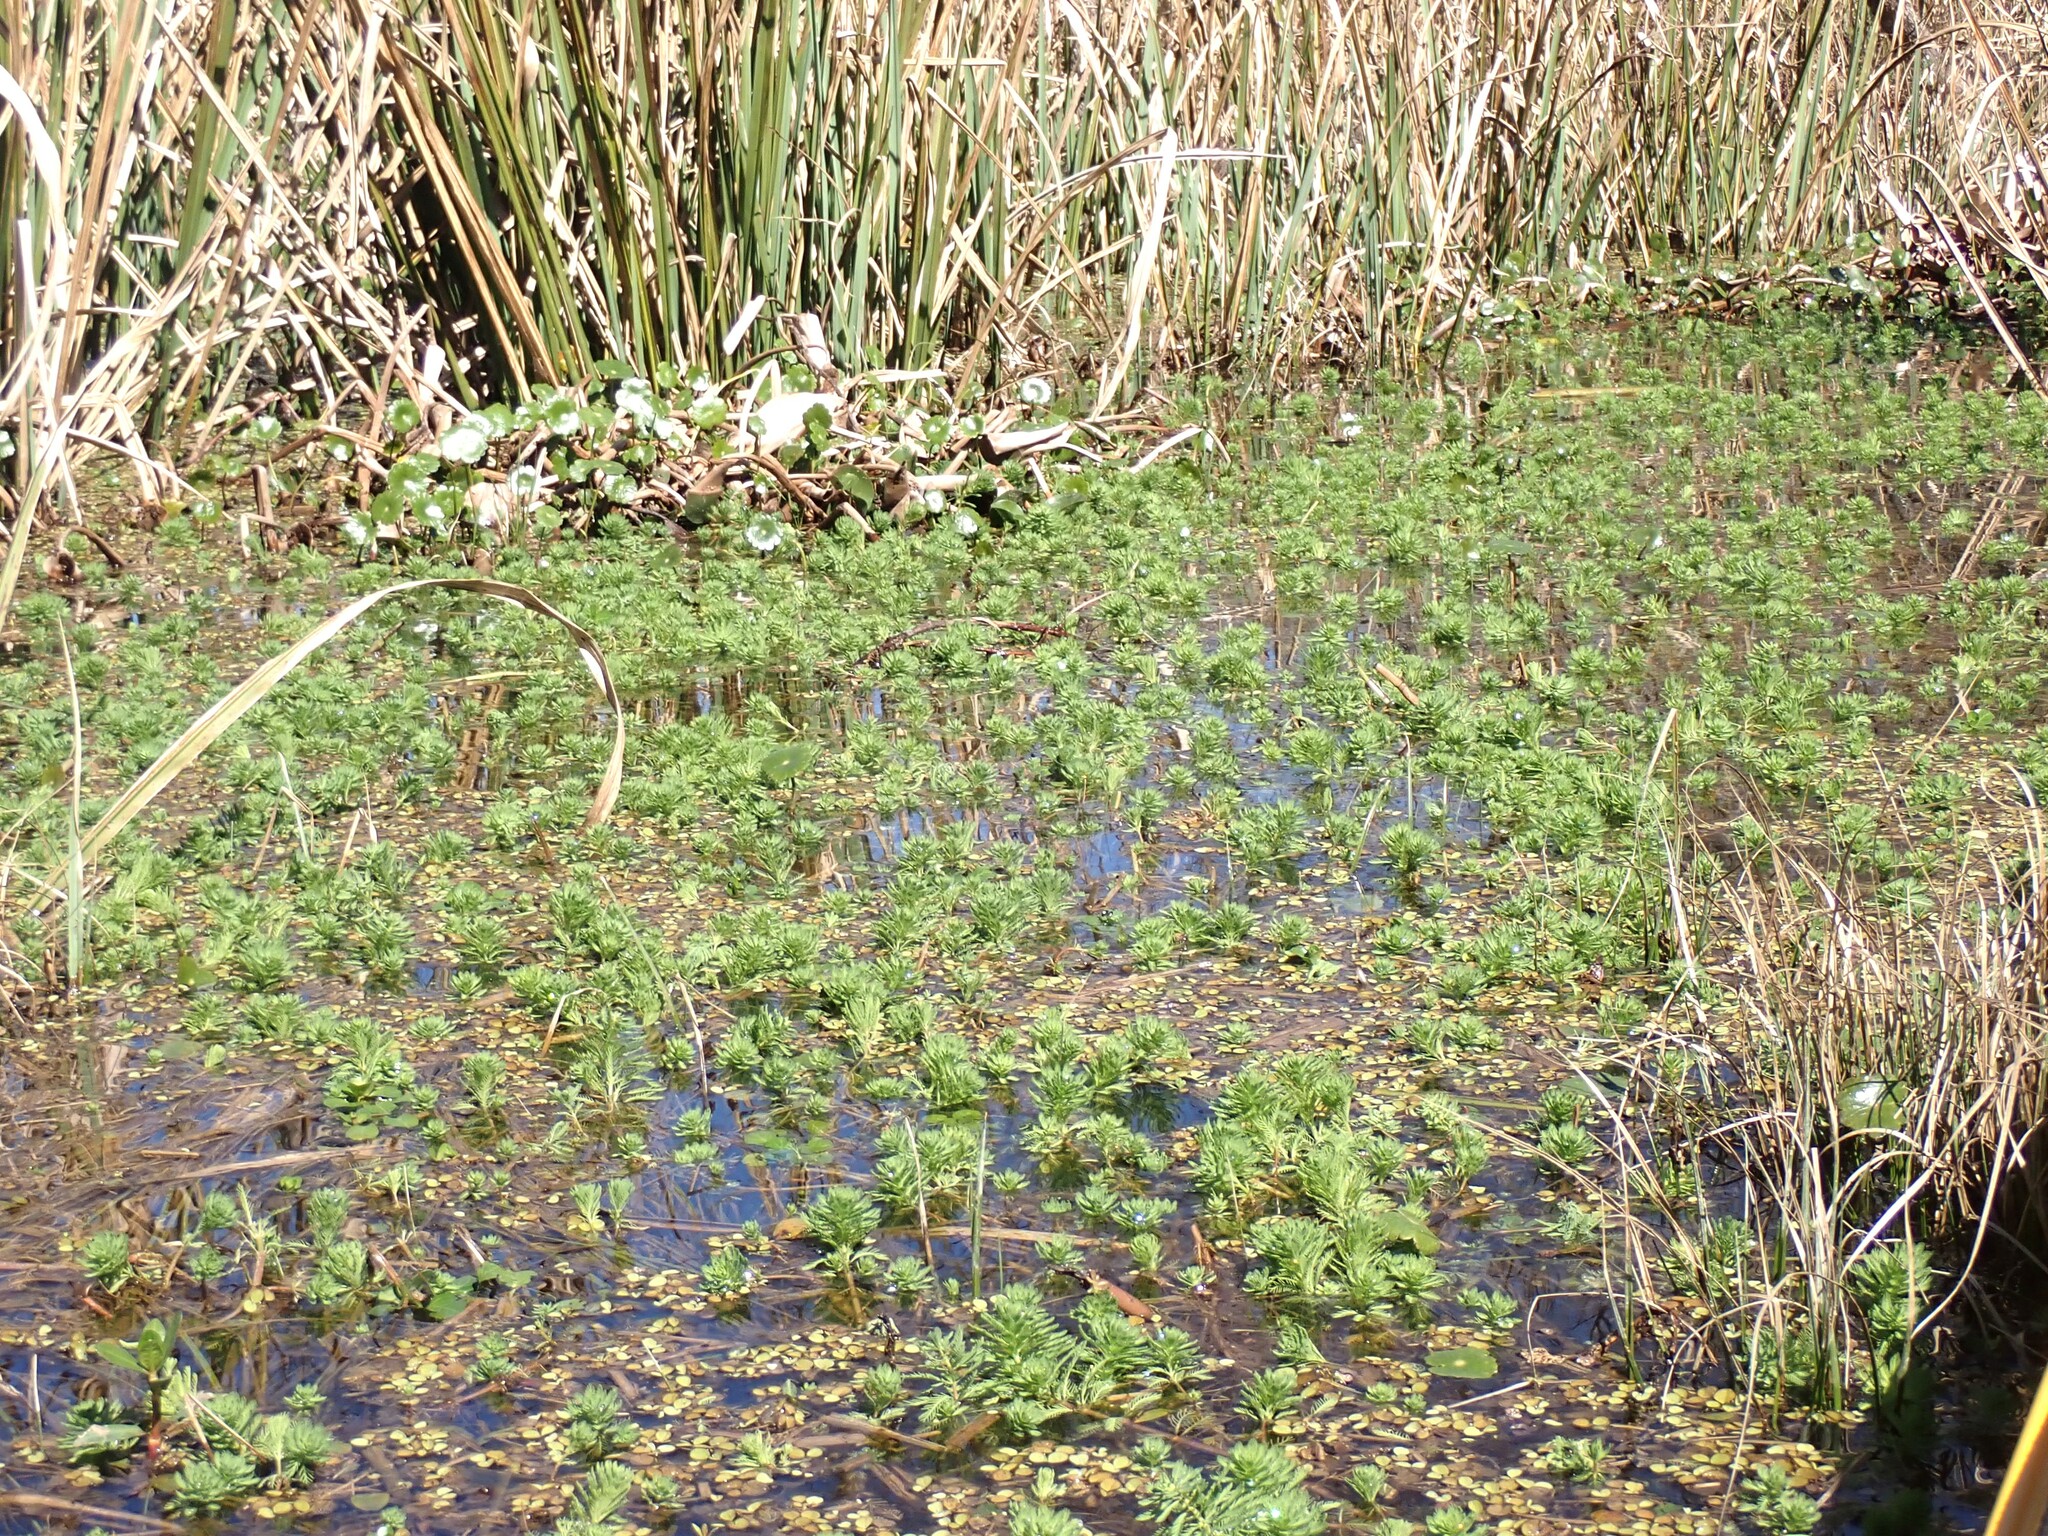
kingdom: Plantae
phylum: Tracheophyta
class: Magnoliopsida
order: Saxifragales
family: Haloragaceae
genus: Myriophyllum
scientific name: Myriophyllum aquaticum
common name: Parrot's feather
